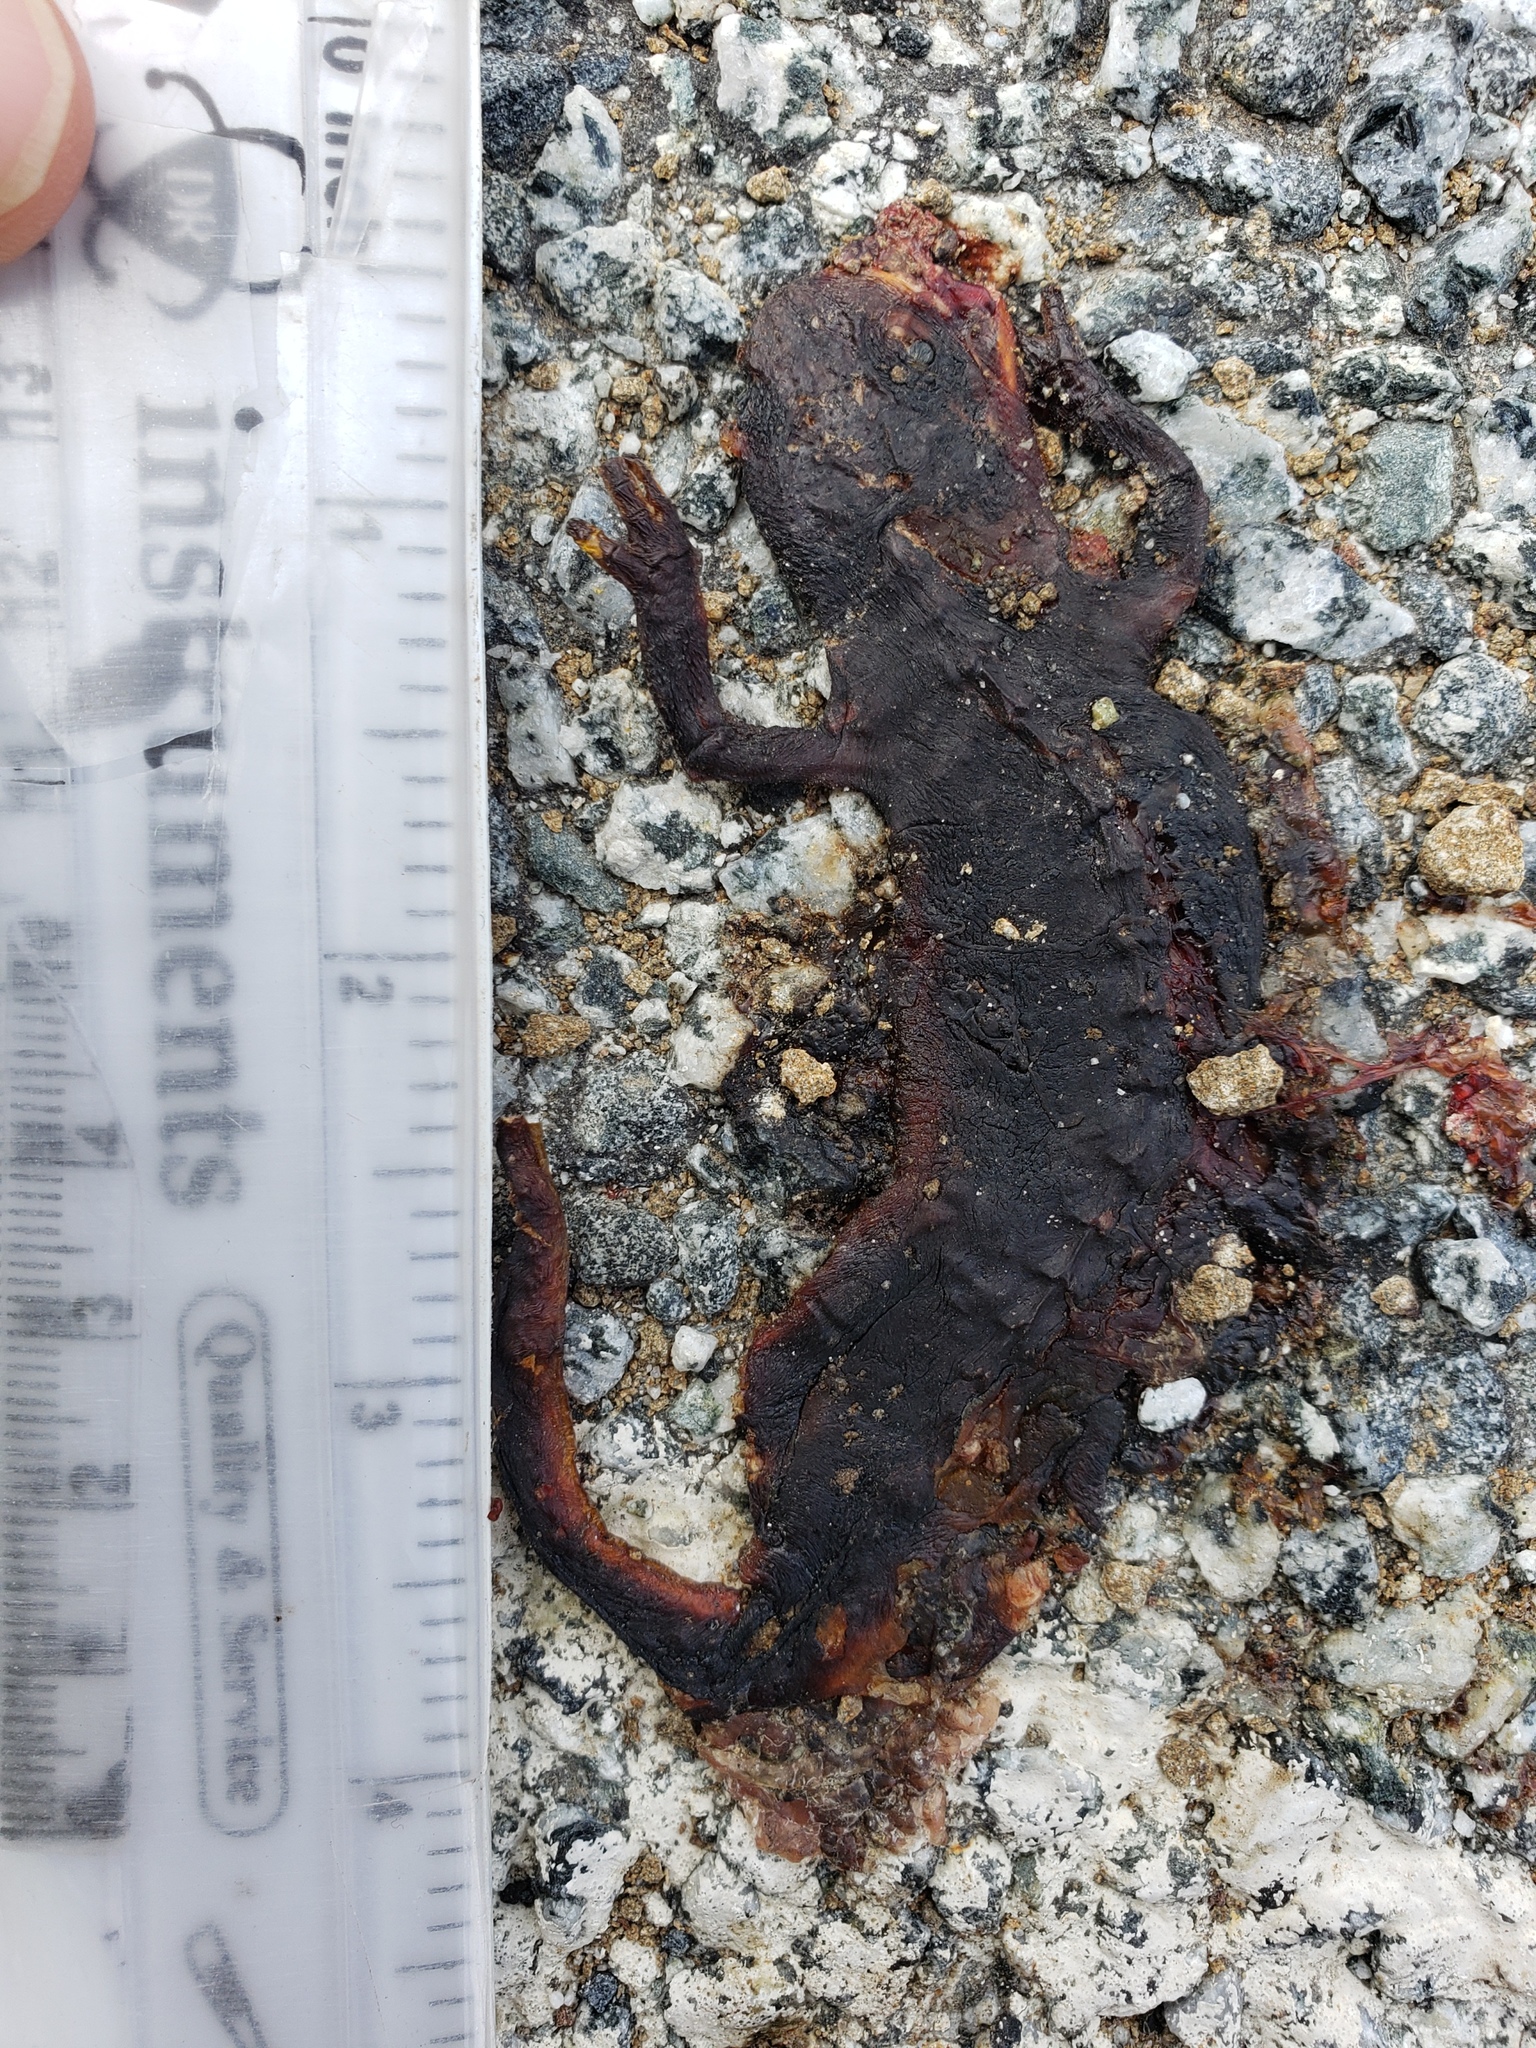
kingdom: Animalia
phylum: Chordata
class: Amphibia
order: Caudata
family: Salamandridae
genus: Taricha
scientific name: Taricha
